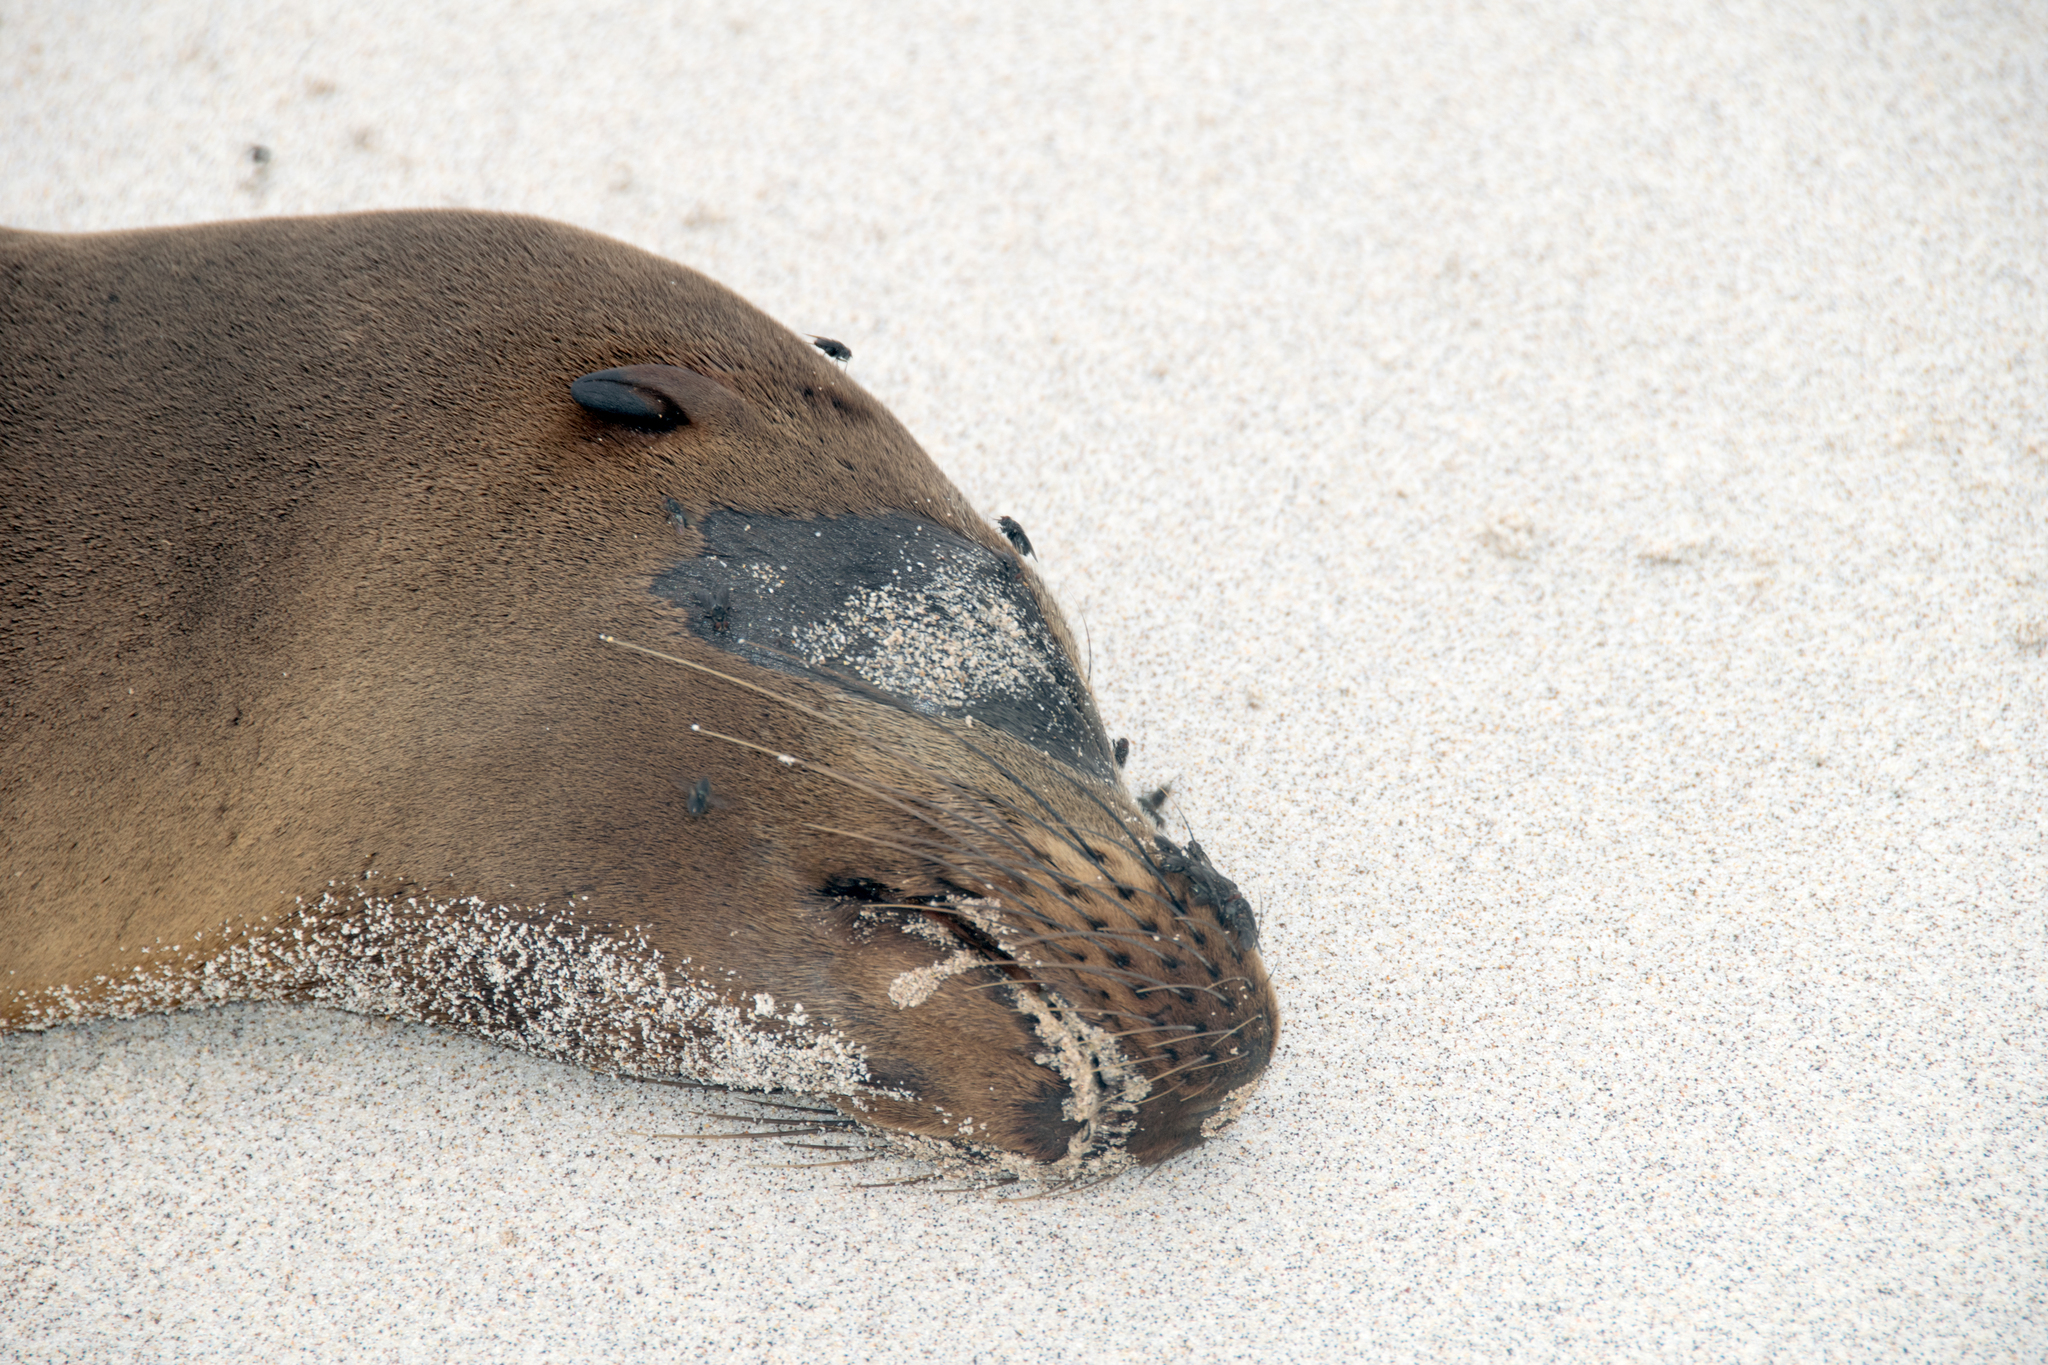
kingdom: Animalia
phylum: Chordata
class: Mammalia
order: Carnivora
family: Otariidae
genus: Zalophus
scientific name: Zalophus wollebaeki
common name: Galapagos sea lion
